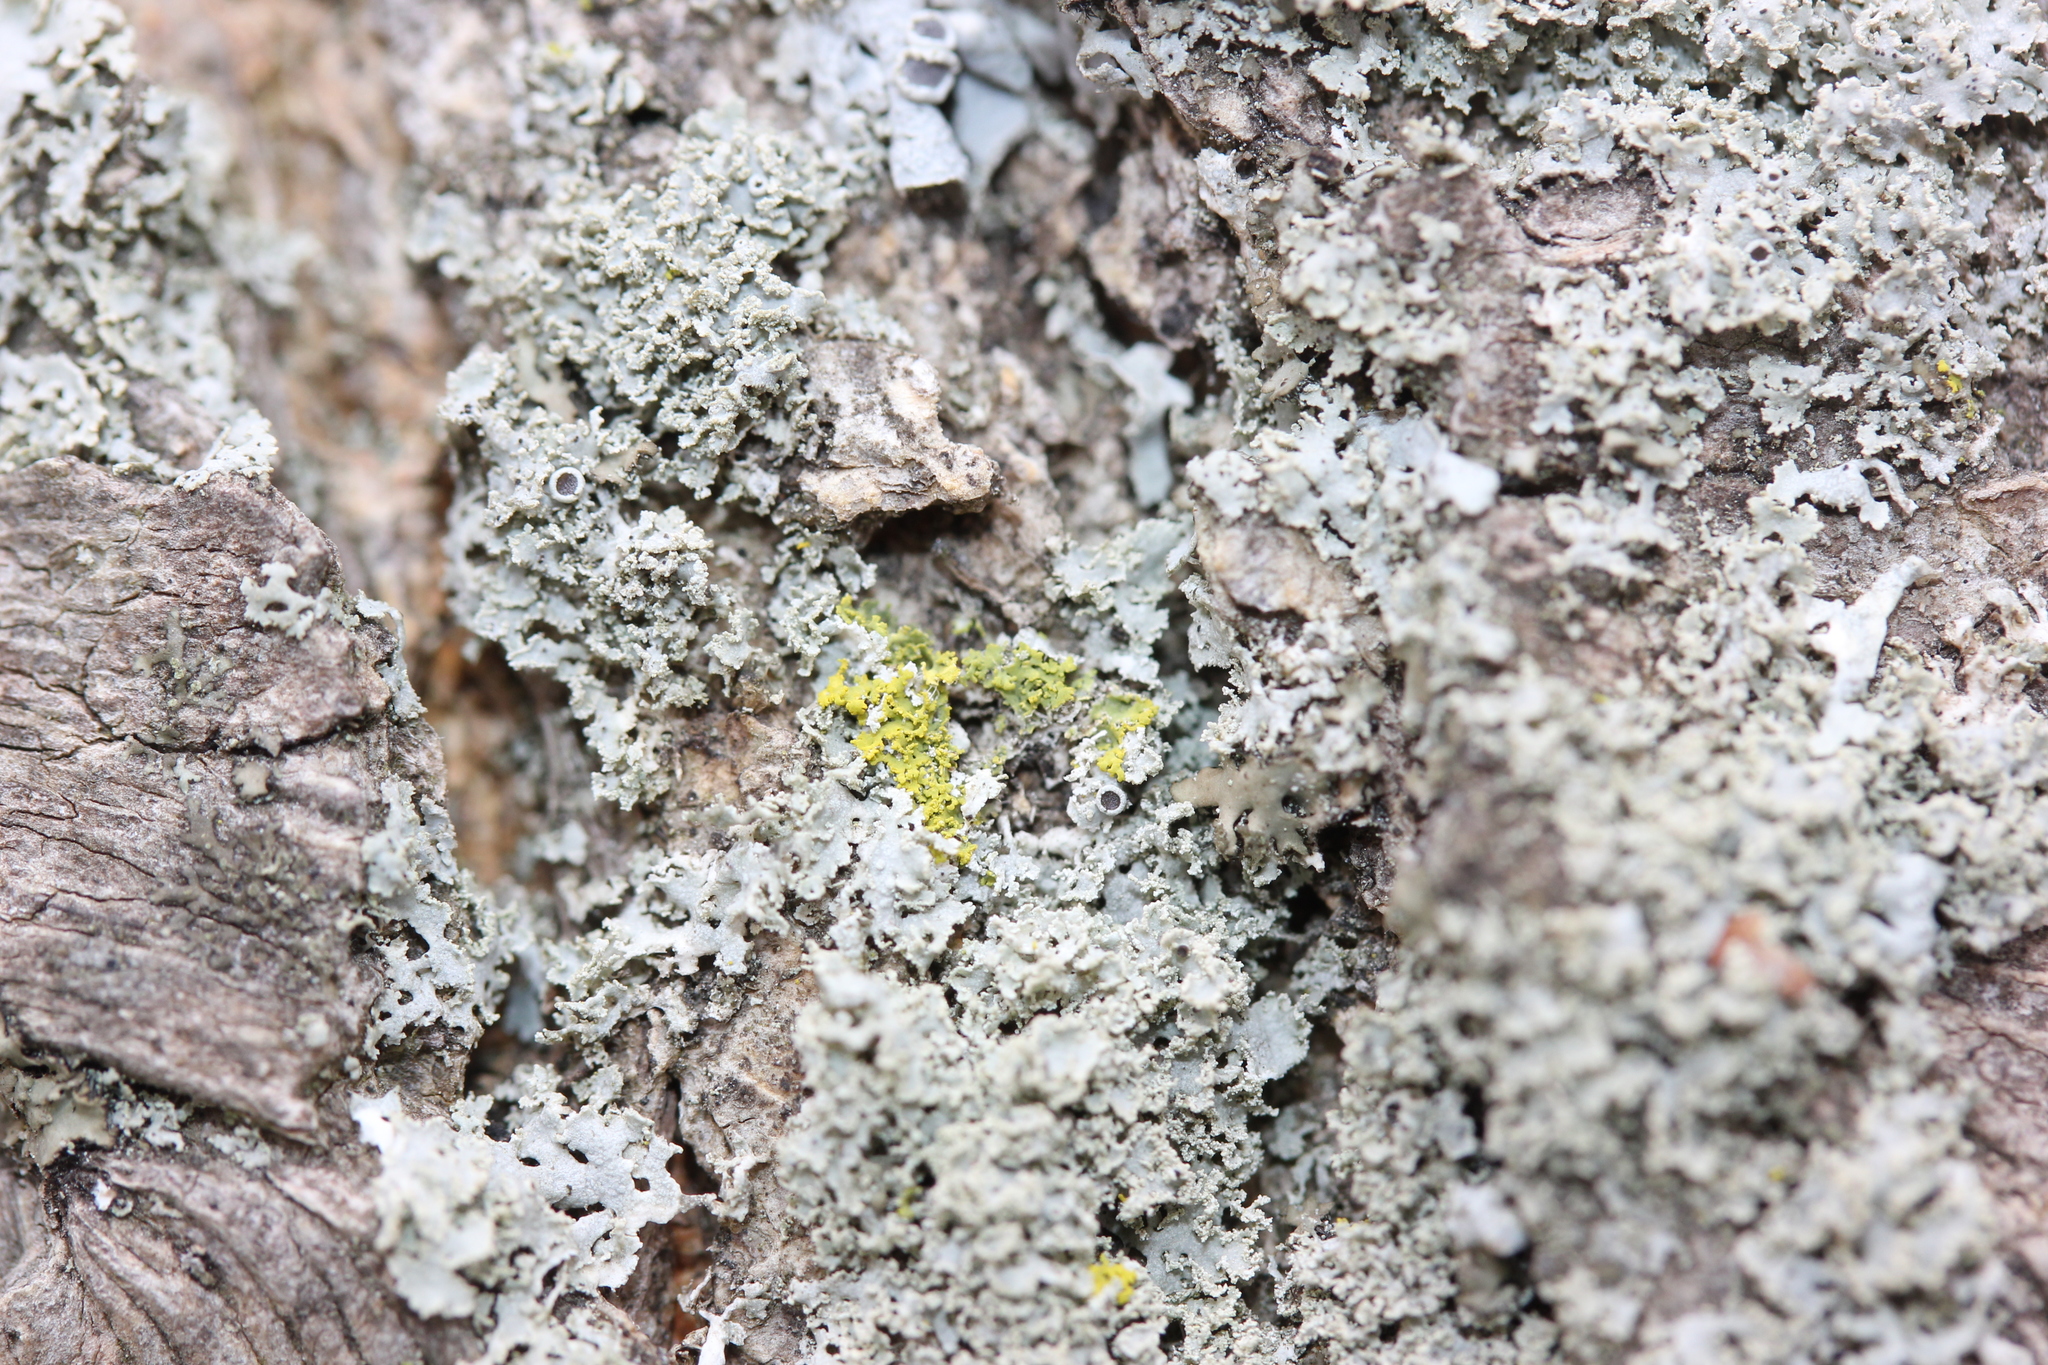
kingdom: Fungi
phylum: Ascomycota
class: Lecanoromycetes
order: Caliciales
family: Physciaceae
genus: Physcia
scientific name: Physcia millegrana
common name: Rosette lichen
